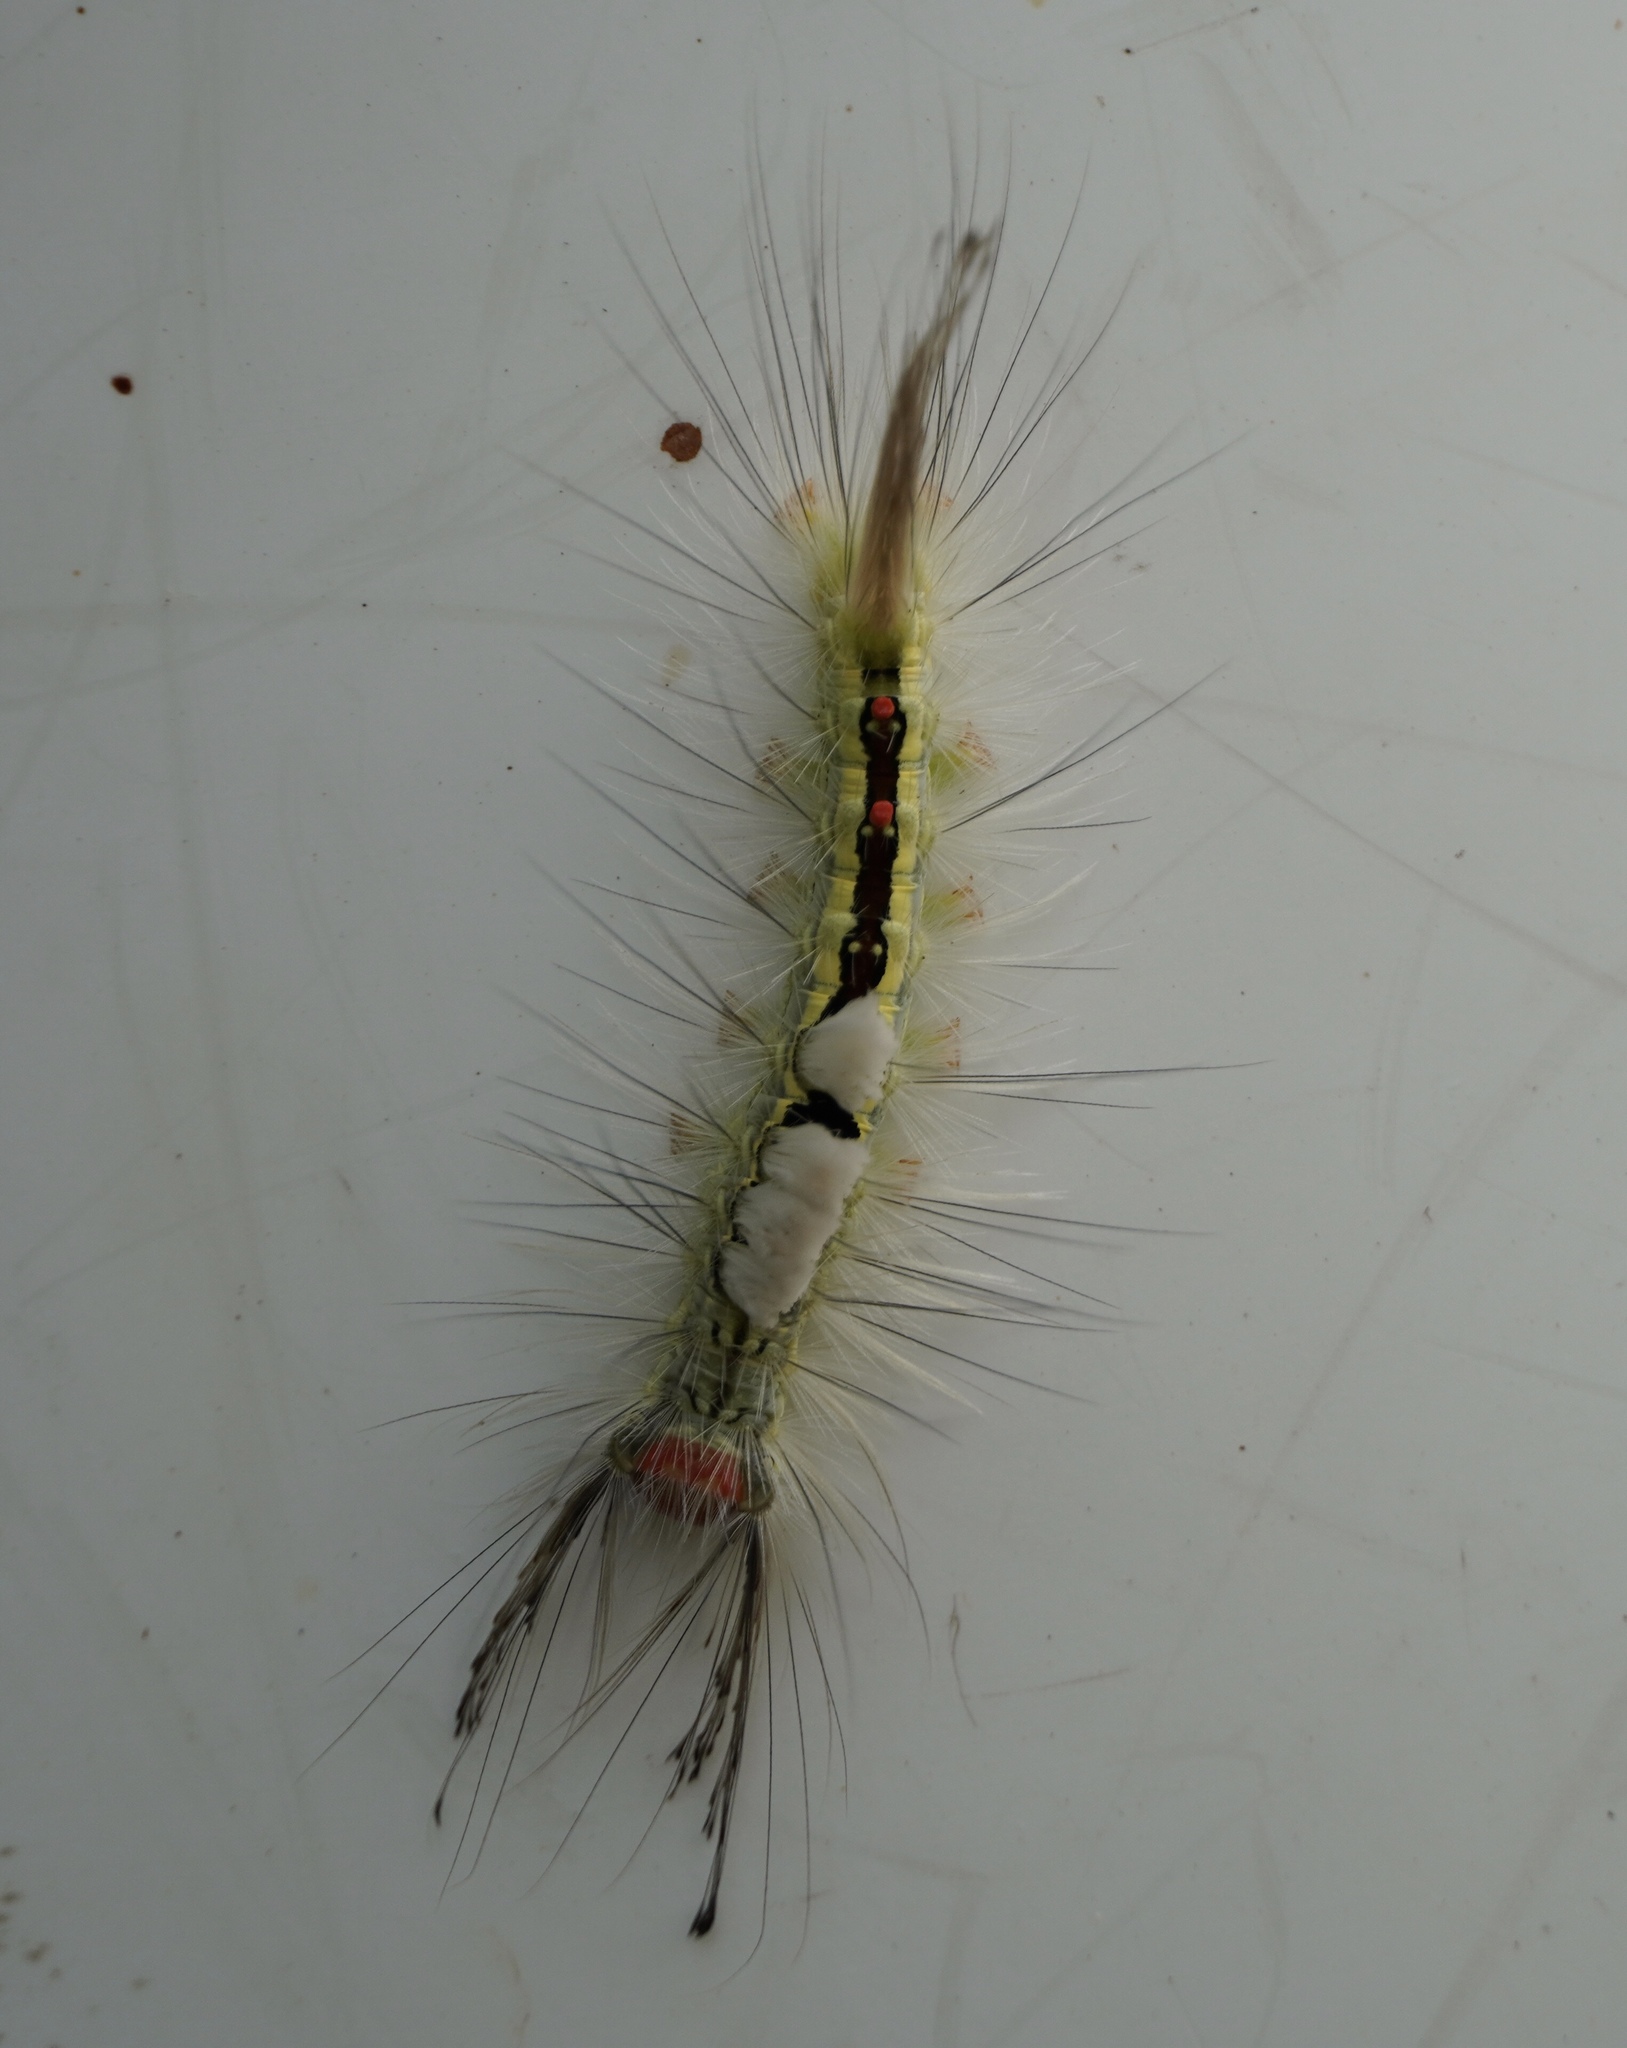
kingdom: Animalia
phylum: Arthropoda
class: Insecta
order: Lepidoptera
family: Erebidae
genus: Orgyia
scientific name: Orgyia leucostigma
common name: White-marked tussock moth
